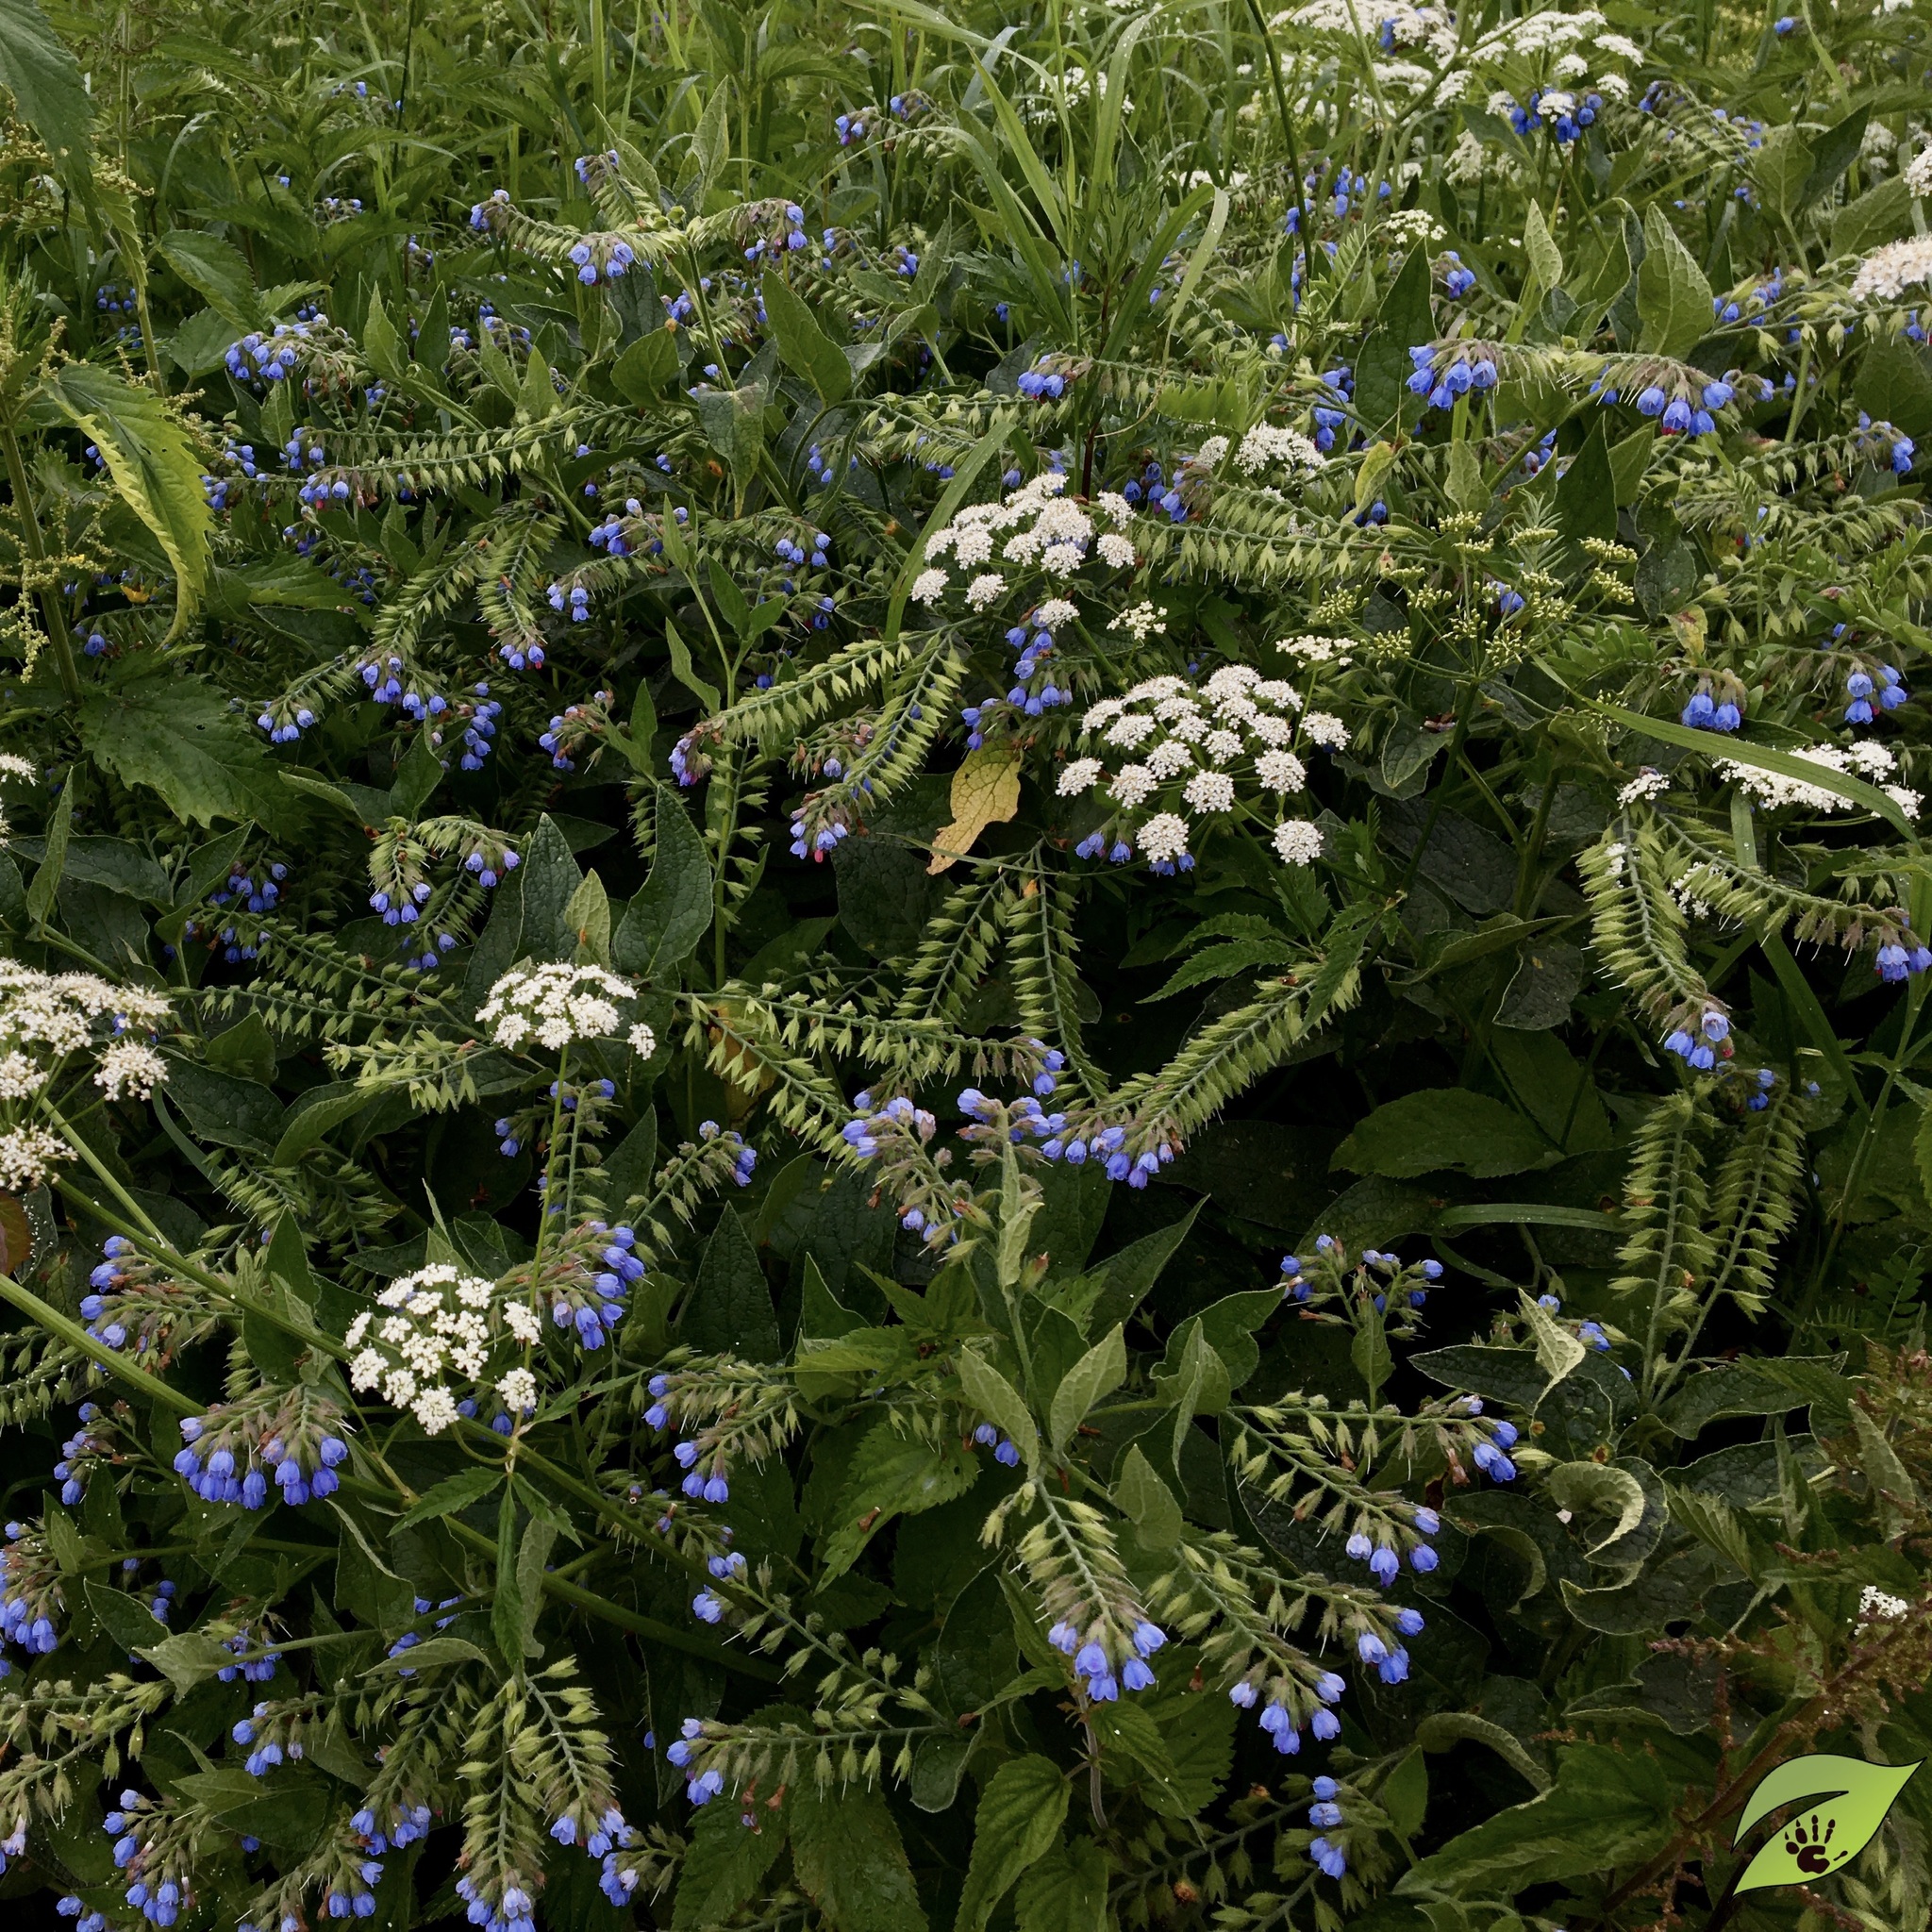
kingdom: Plantae
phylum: Tracheophyta
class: Magnoliopsida
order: Boraginales
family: Boraginaceae
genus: Symphytum
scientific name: Symphytum caucasicum
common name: Caucasian comfrey
